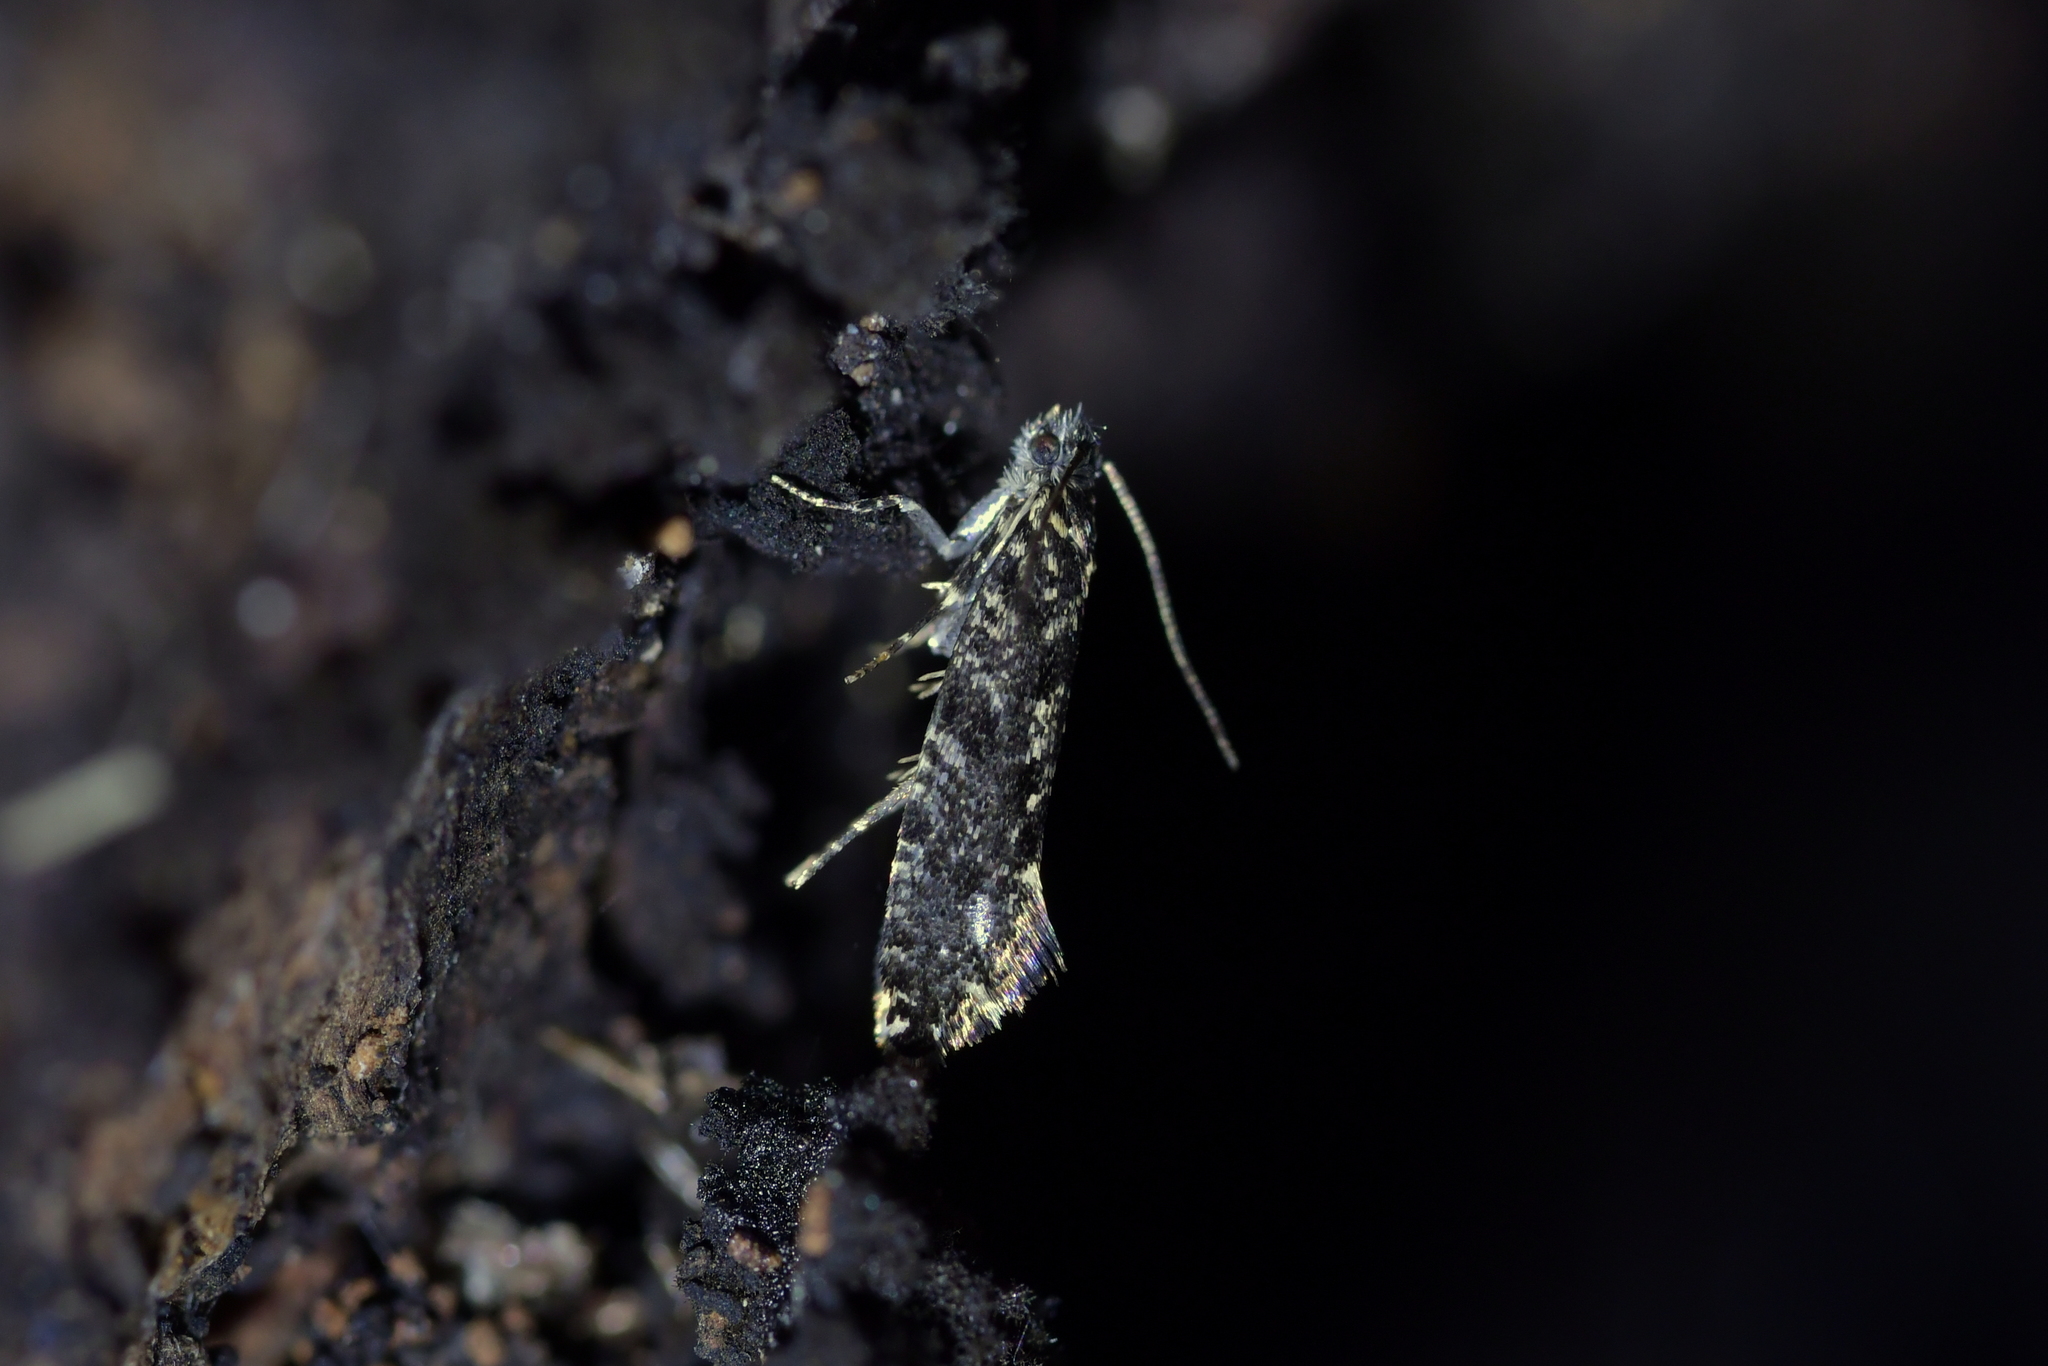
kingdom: Animalia
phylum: Arthropoda
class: Insecta
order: Lepidoptera
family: Tineidae
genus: Tinea
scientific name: Tinea fagicola
